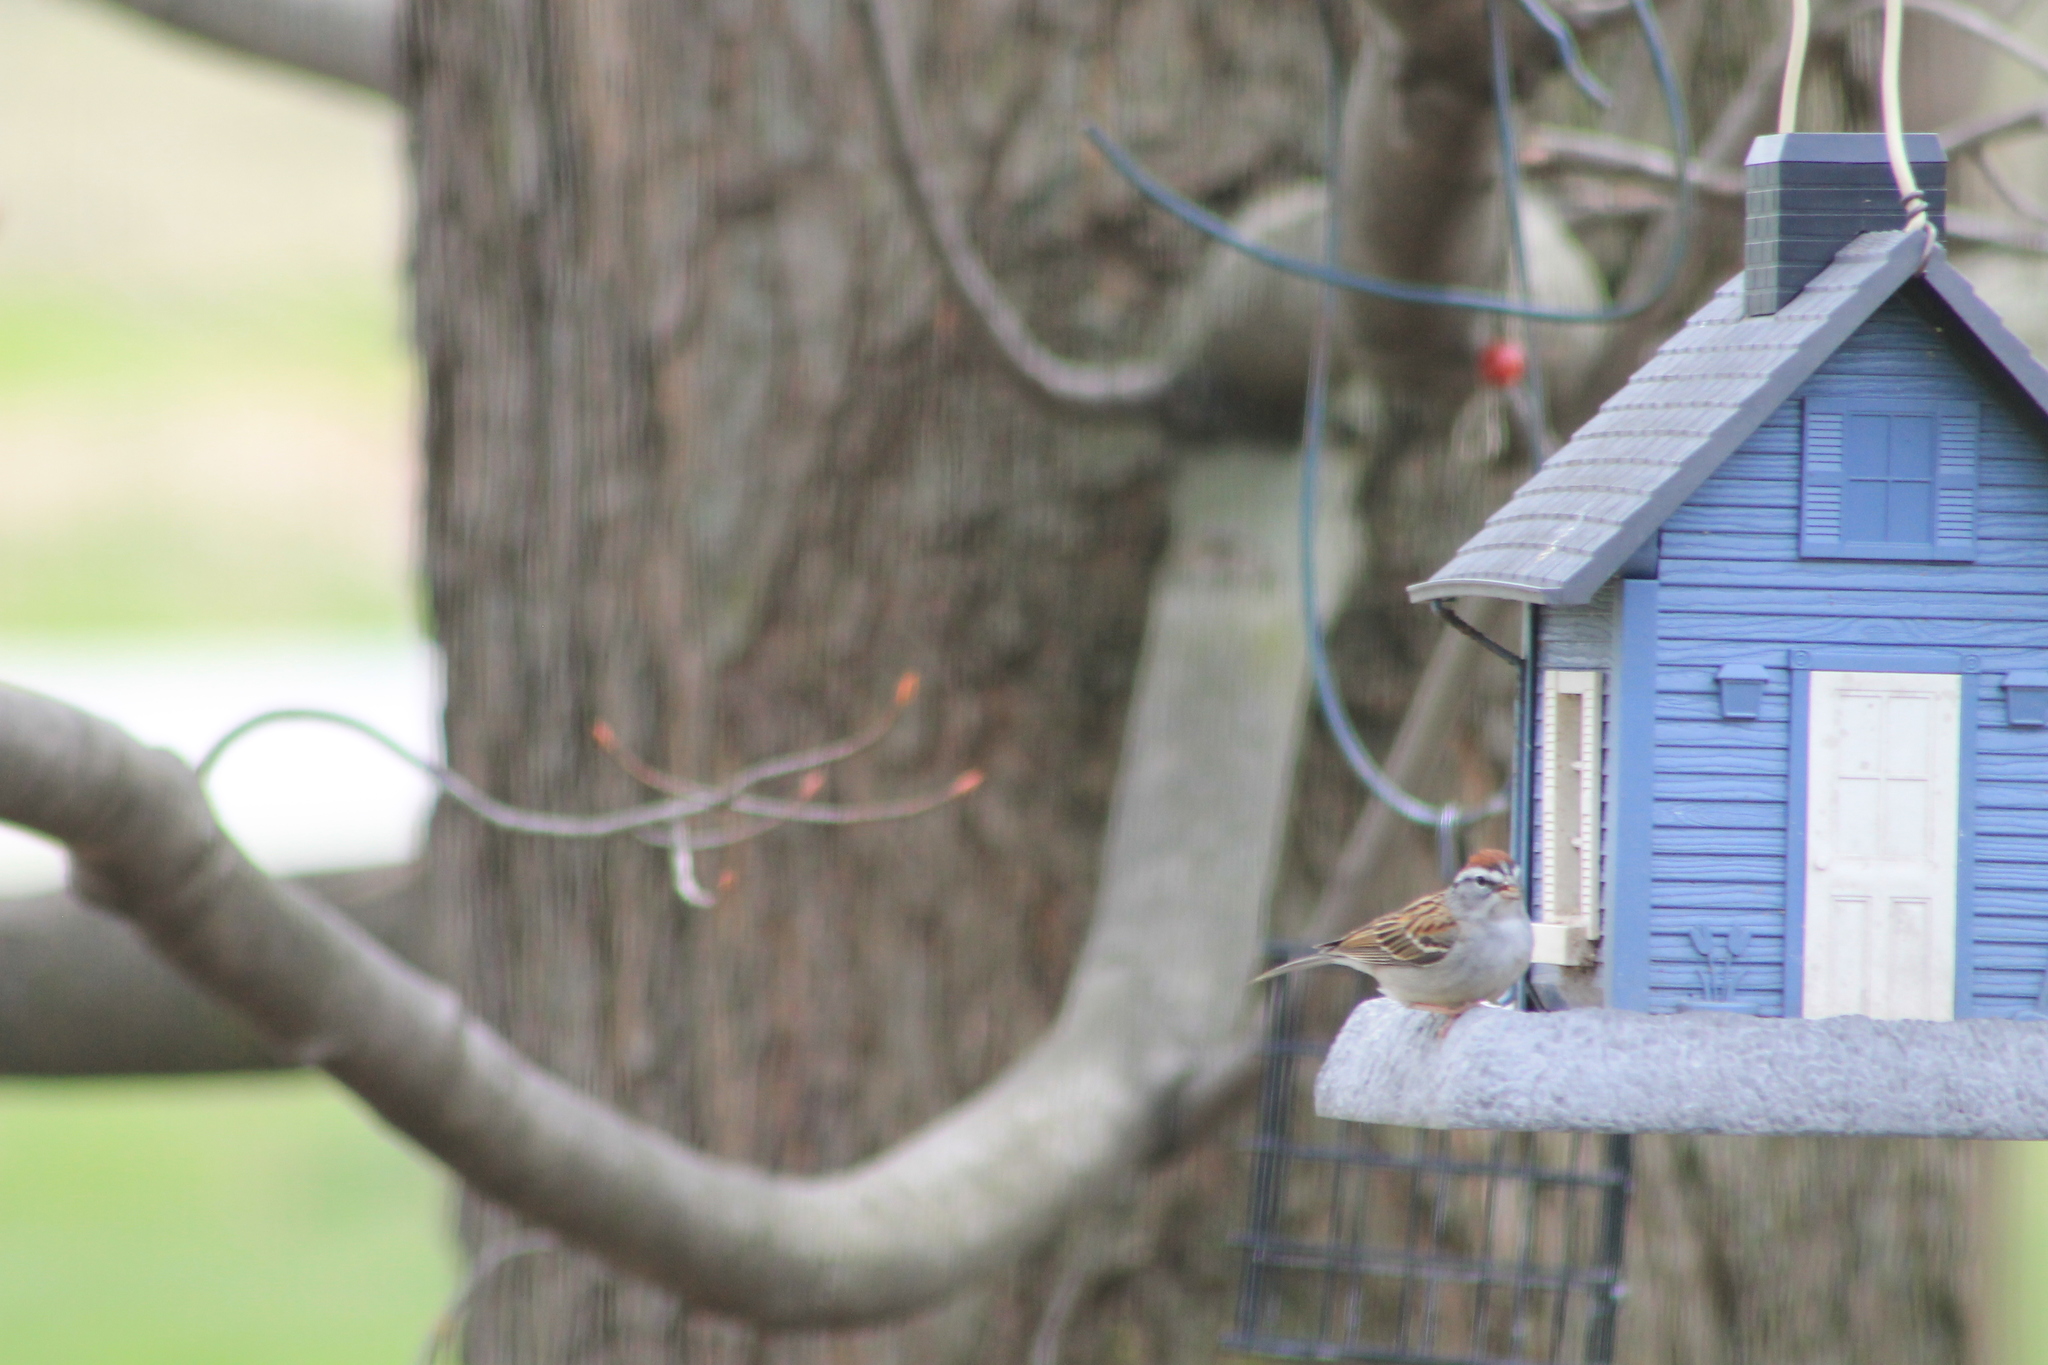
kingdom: Animalia
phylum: Chordata
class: Aves
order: Passeriformes
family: Passerellidae
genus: Spizella
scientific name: Spizella passerina
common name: Chipping sparrow
